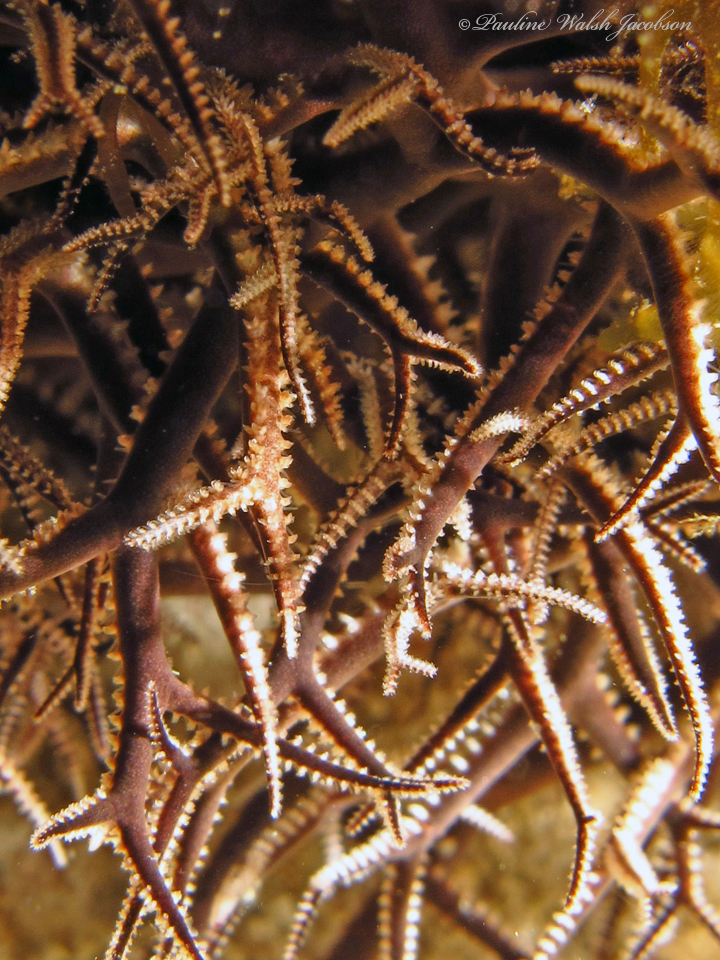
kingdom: Animalia
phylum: Echinodermata
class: Ophiuroidea
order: Euryalida
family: Gorgonocephalidae
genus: Astrophyton
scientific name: Astrophyton muricatum
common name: Basket starfish
